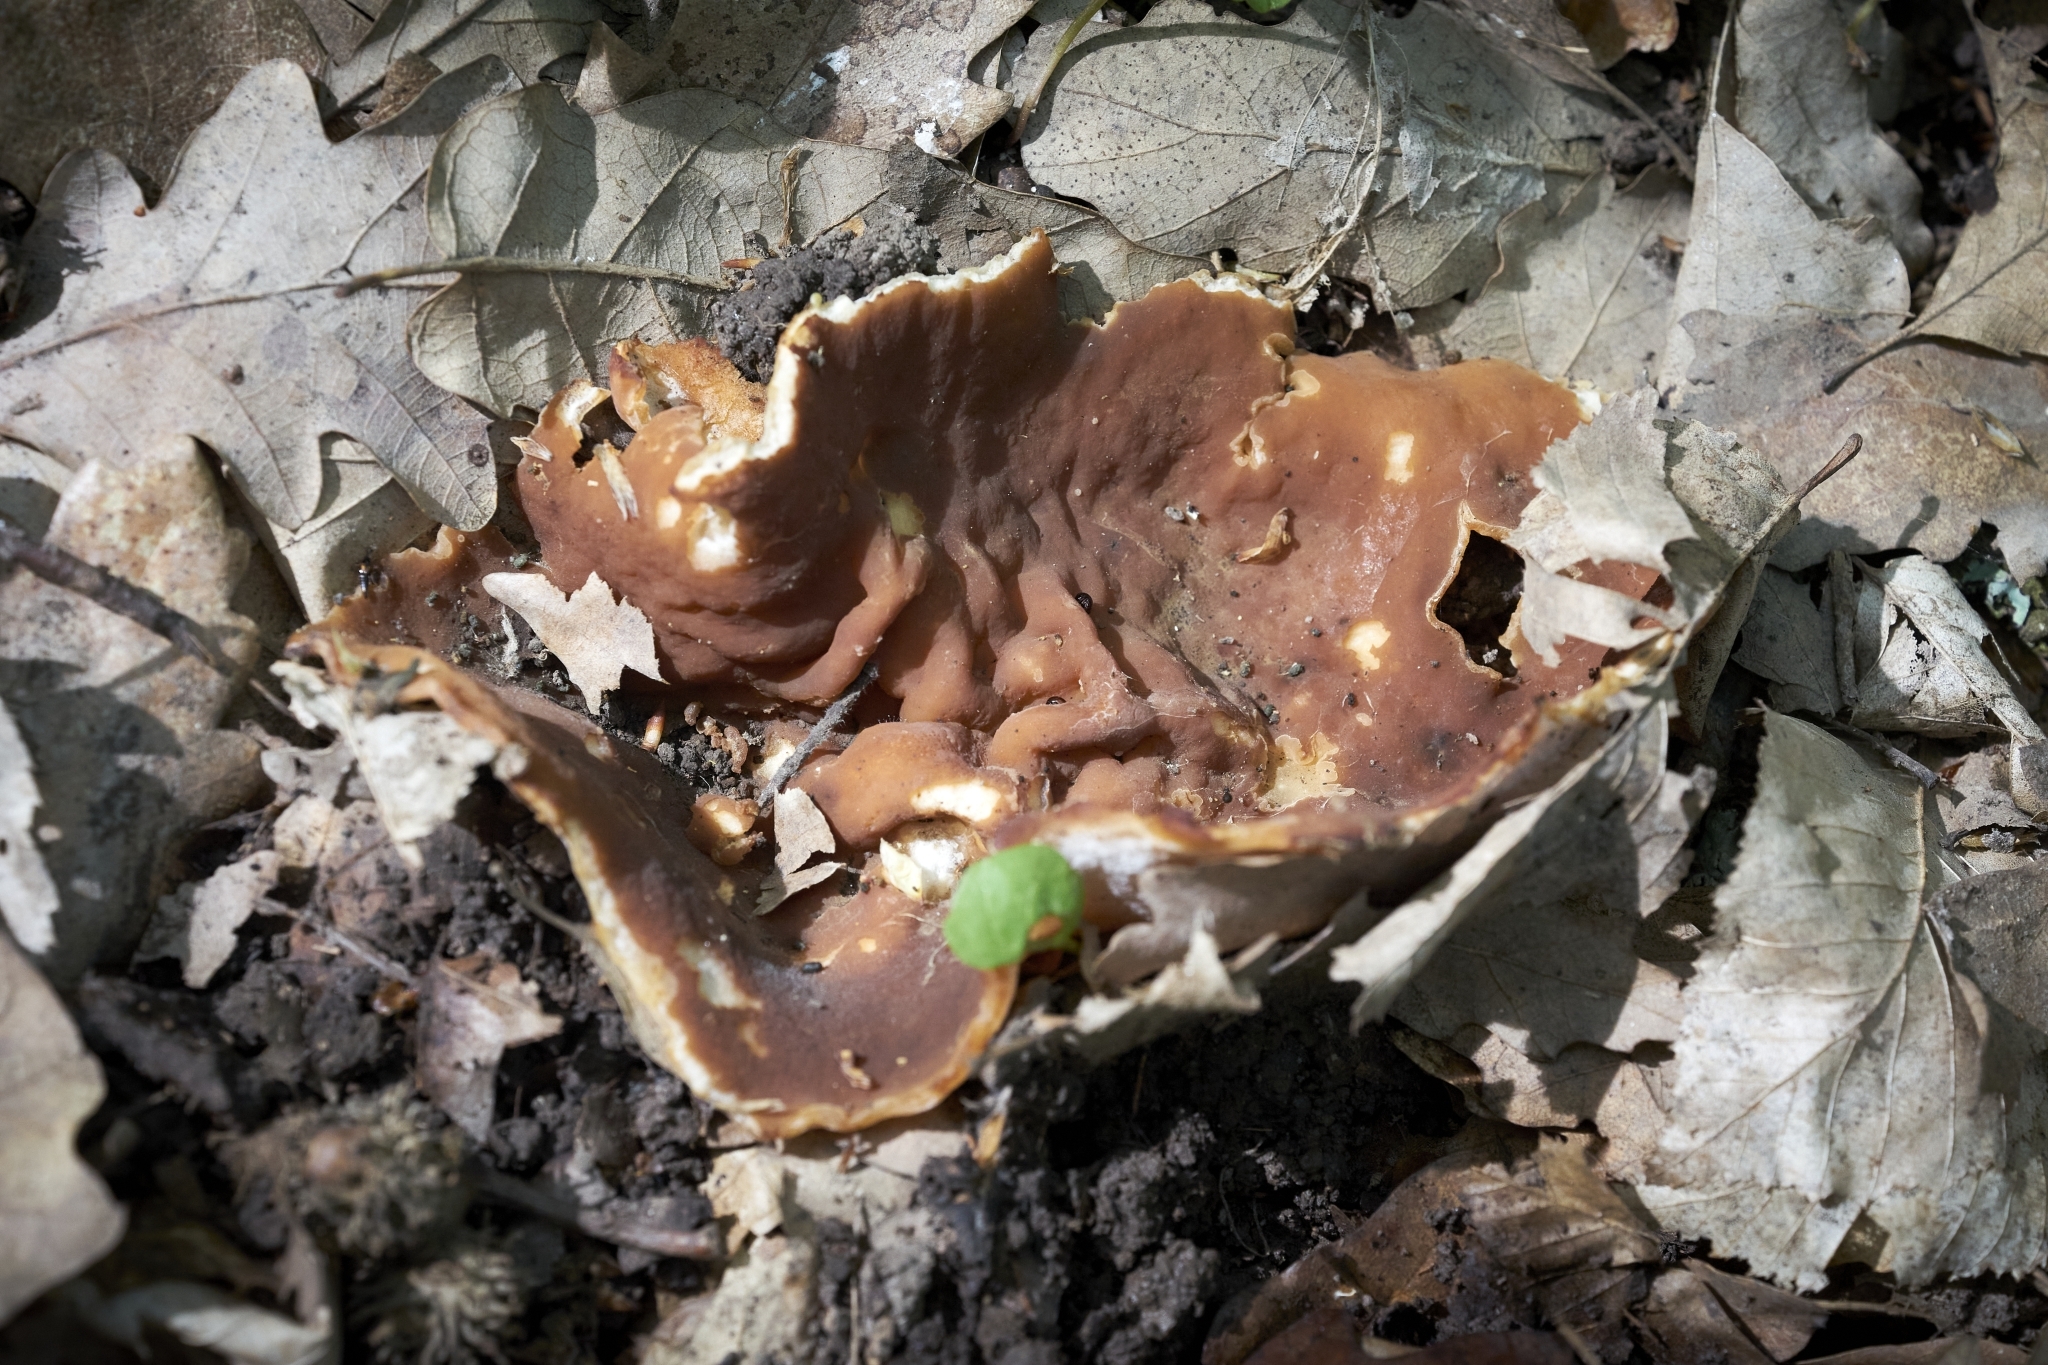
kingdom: Fungi
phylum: Ascomycota
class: Pezizomycetes
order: Pezizales
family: Morchellaceae
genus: Disciotis
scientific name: Disciotis venosa
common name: Bleach cup
